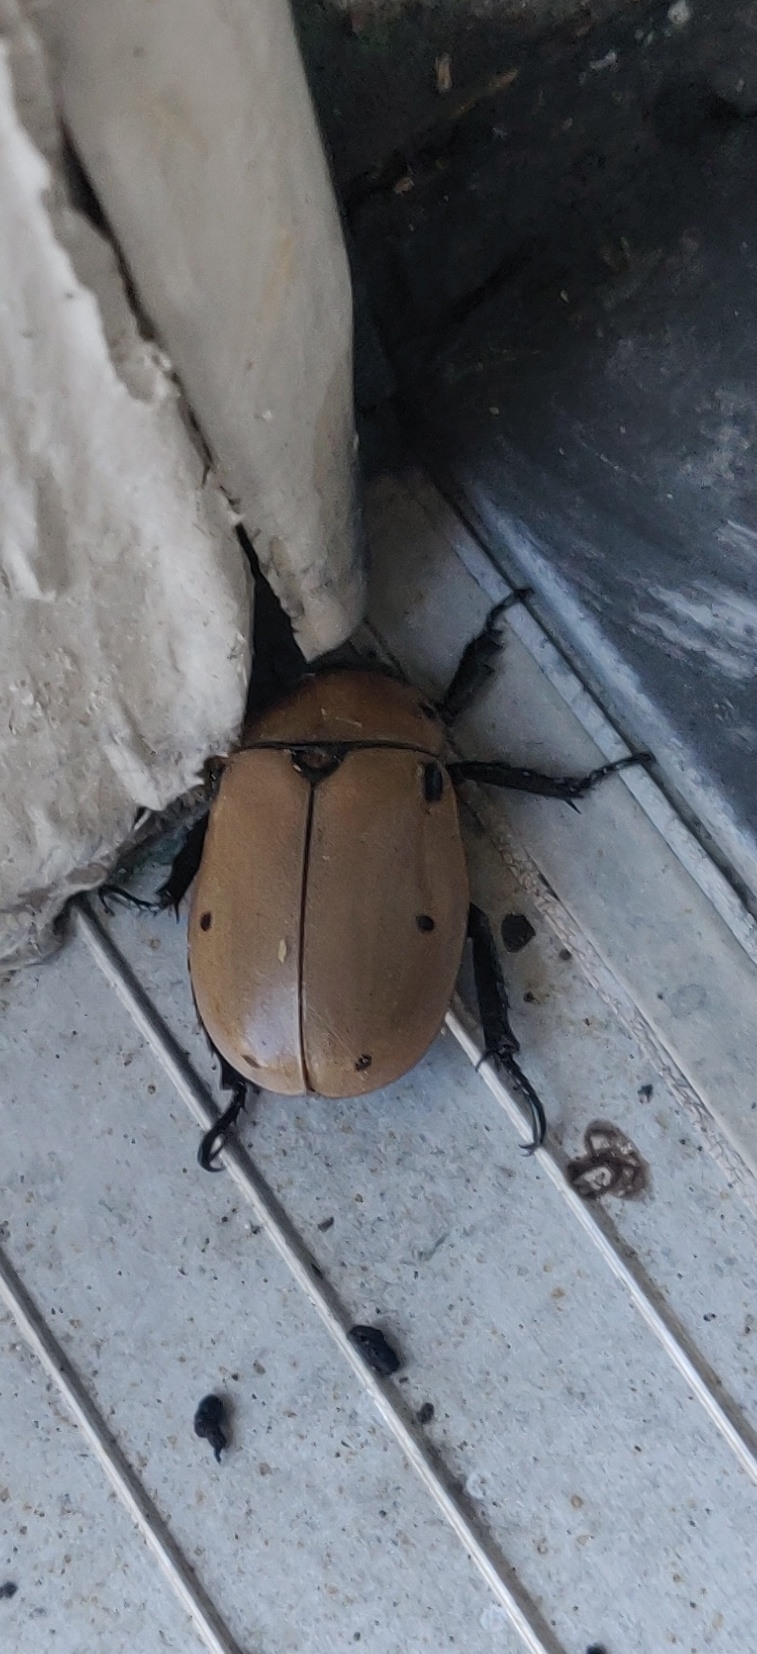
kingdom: Animalia
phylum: Arthropoda
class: Insecta
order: Coleoptera
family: Scarabaeidae
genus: Pelidnota
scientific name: Pelidnota punctata
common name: Grapevine beetle
